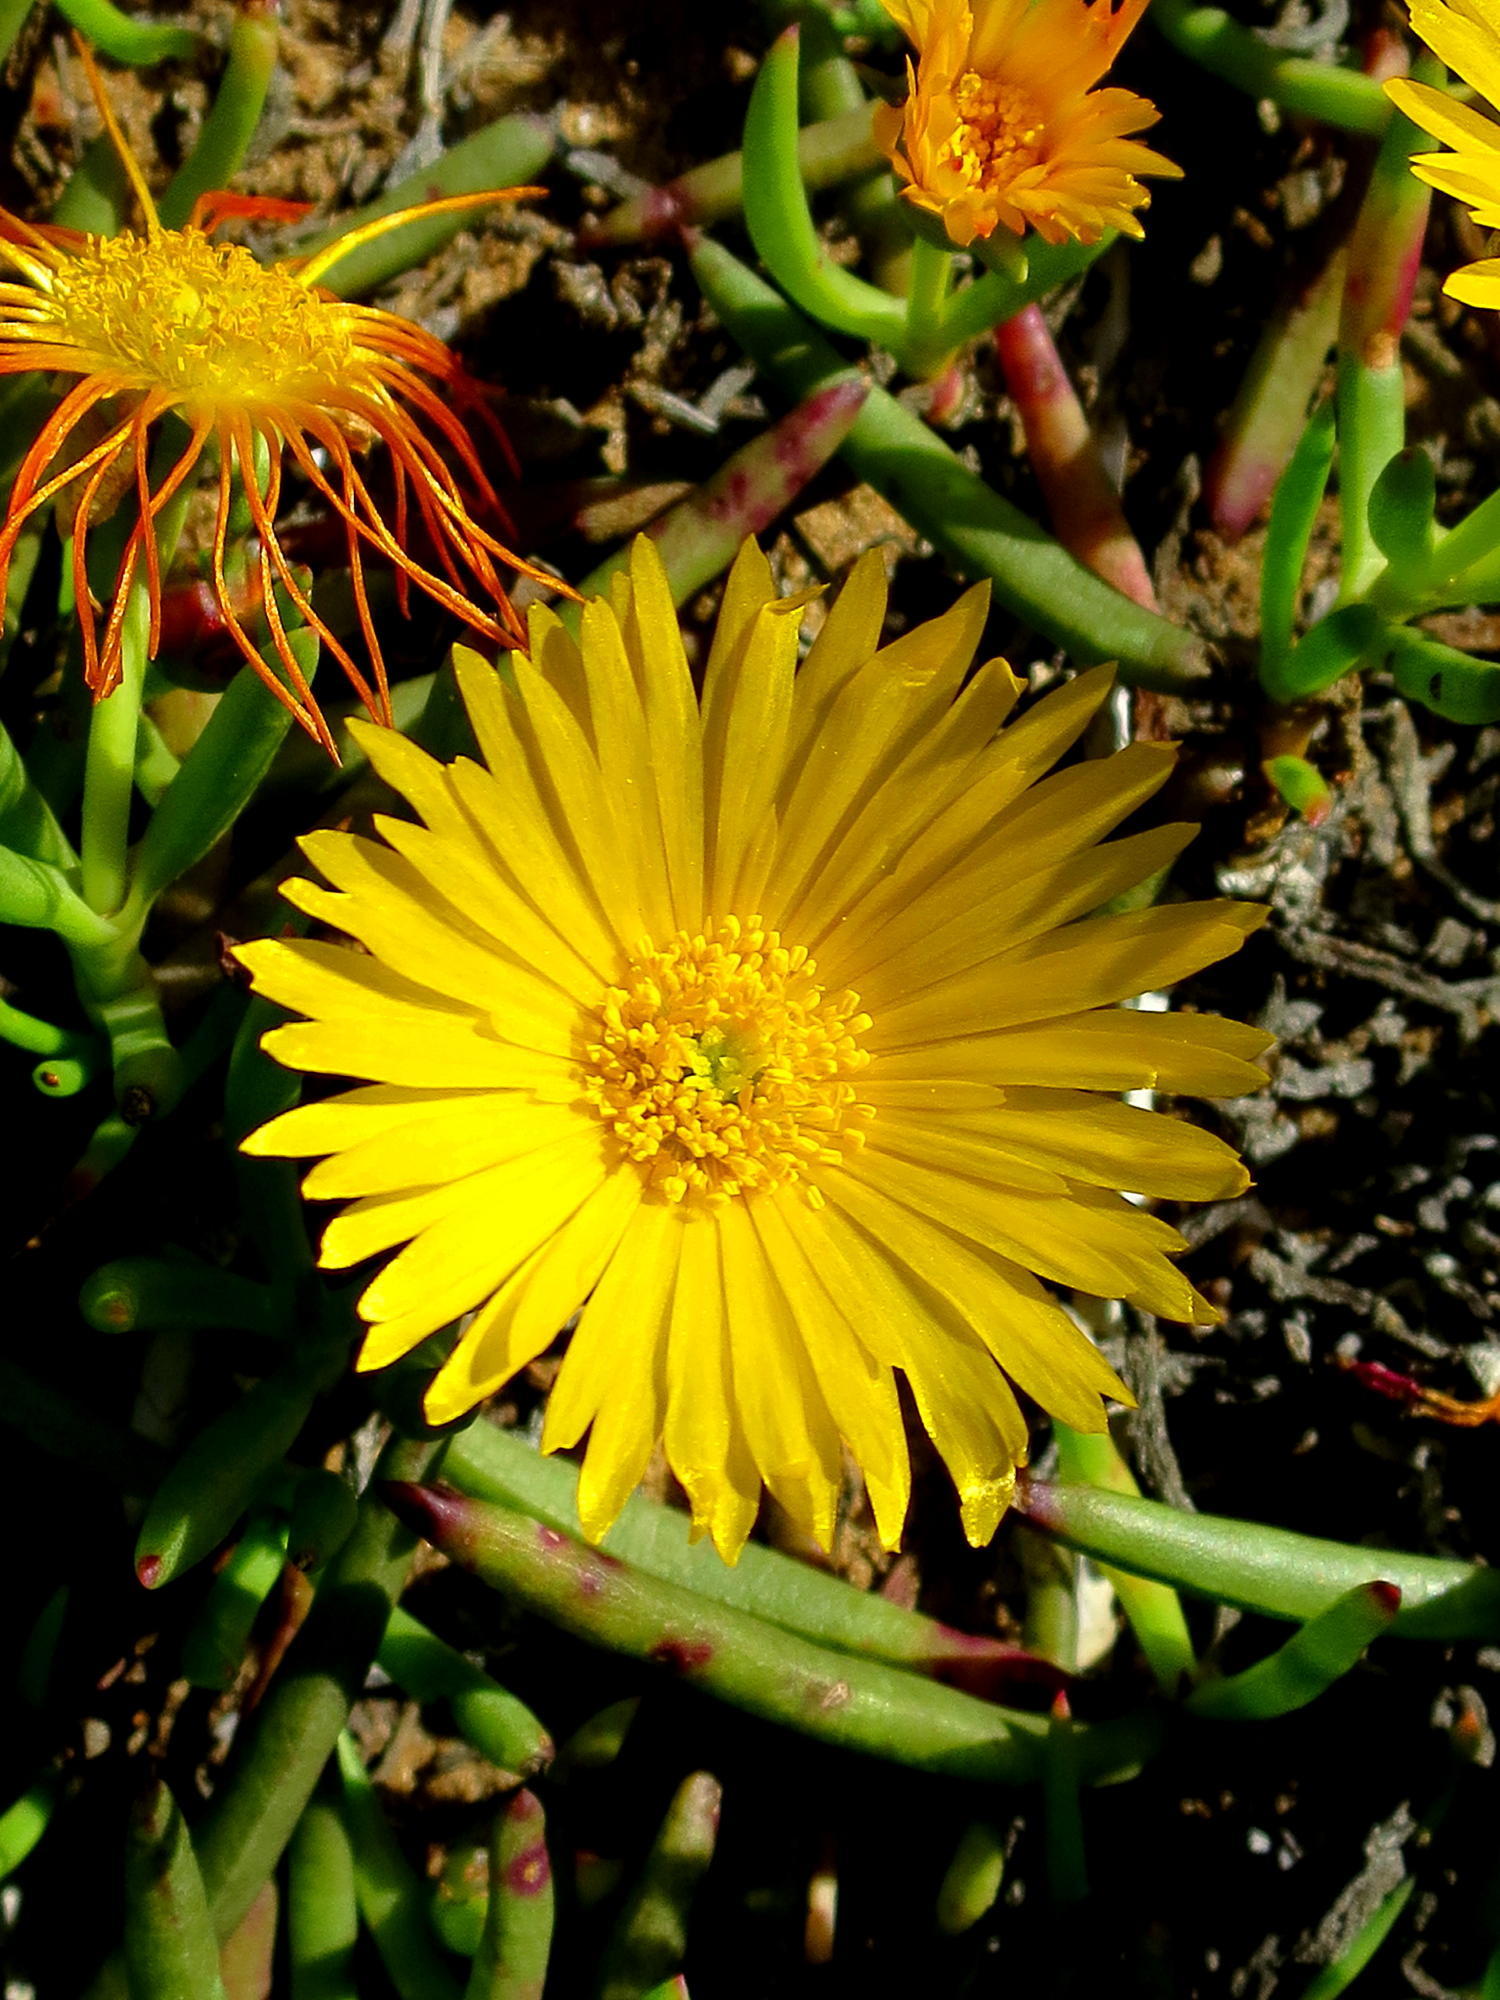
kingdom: Plantae
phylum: Tracheophyta
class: Magnoliopsida
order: Caryophyllales
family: Aizoaceae
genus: Jordaaniella
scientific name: Jordaaniella maritima
